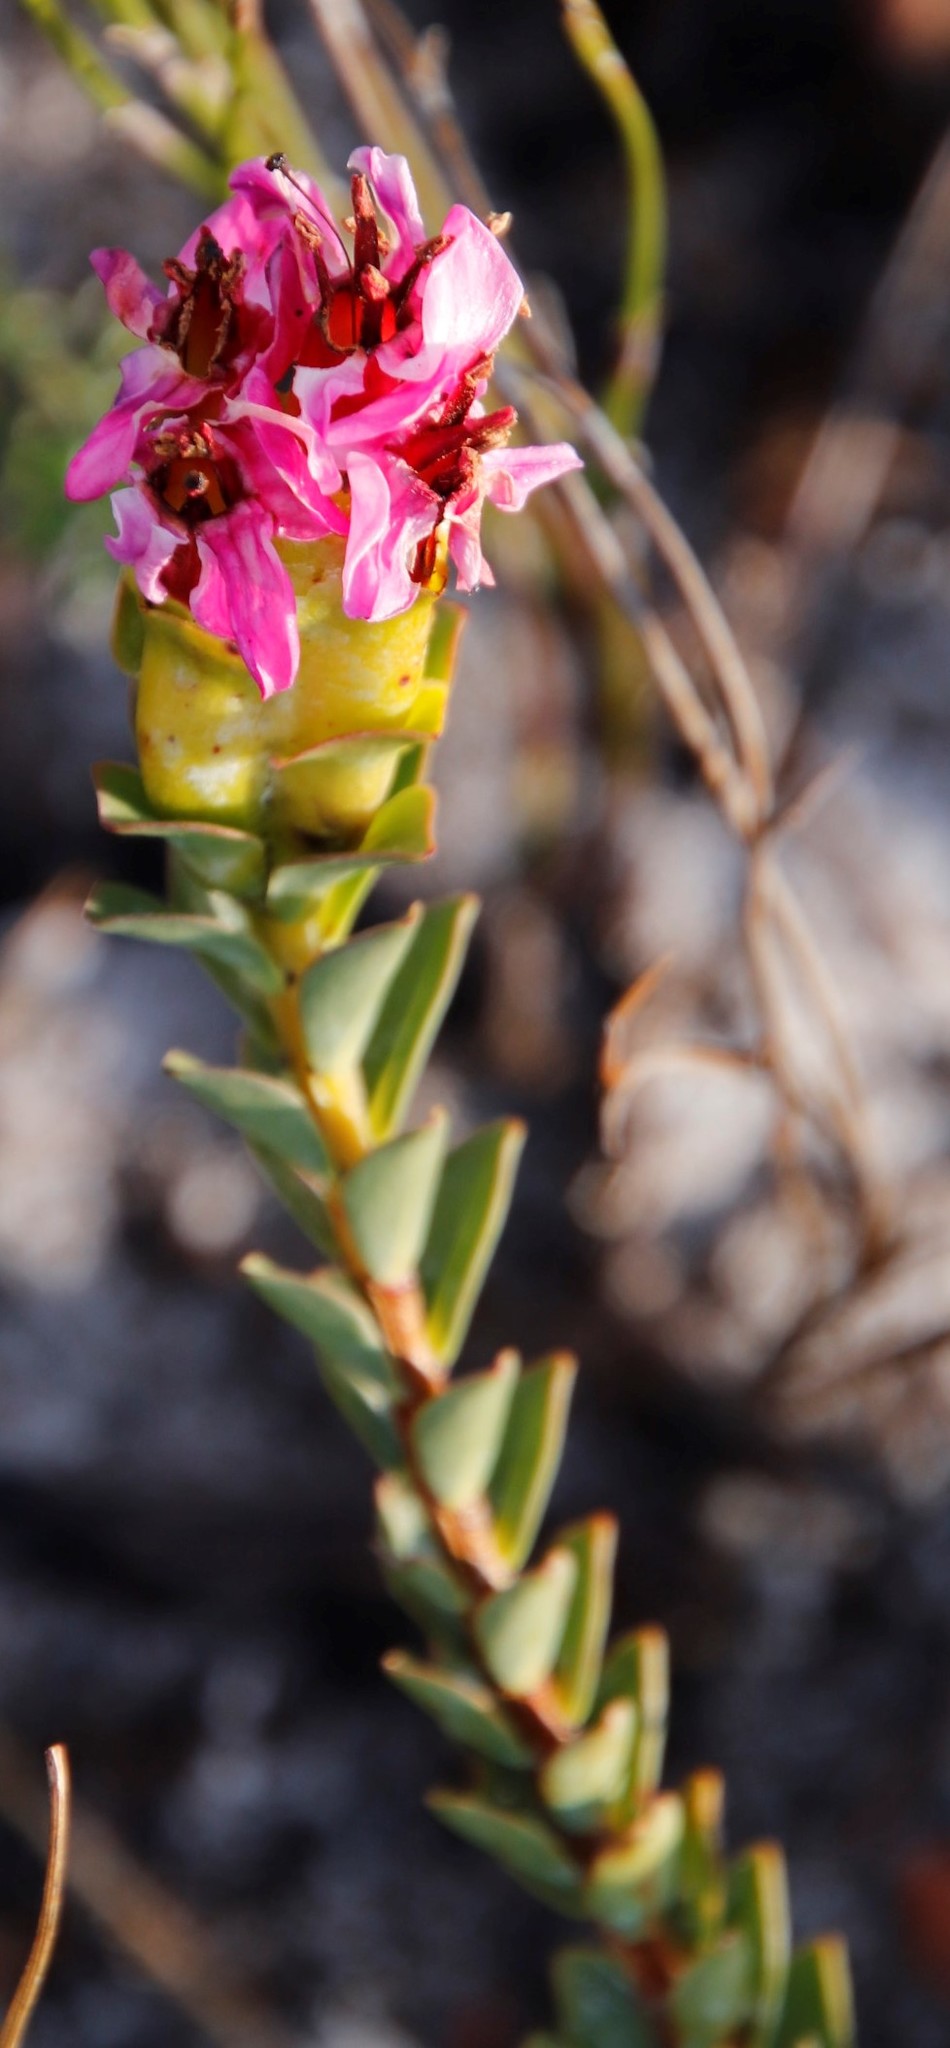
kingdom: Plantae
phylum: Tracheophyta
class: Magnoliopsida
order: Myrtales
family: Penaeaceae
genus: Saltera
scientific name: Saltera sarcocolla
